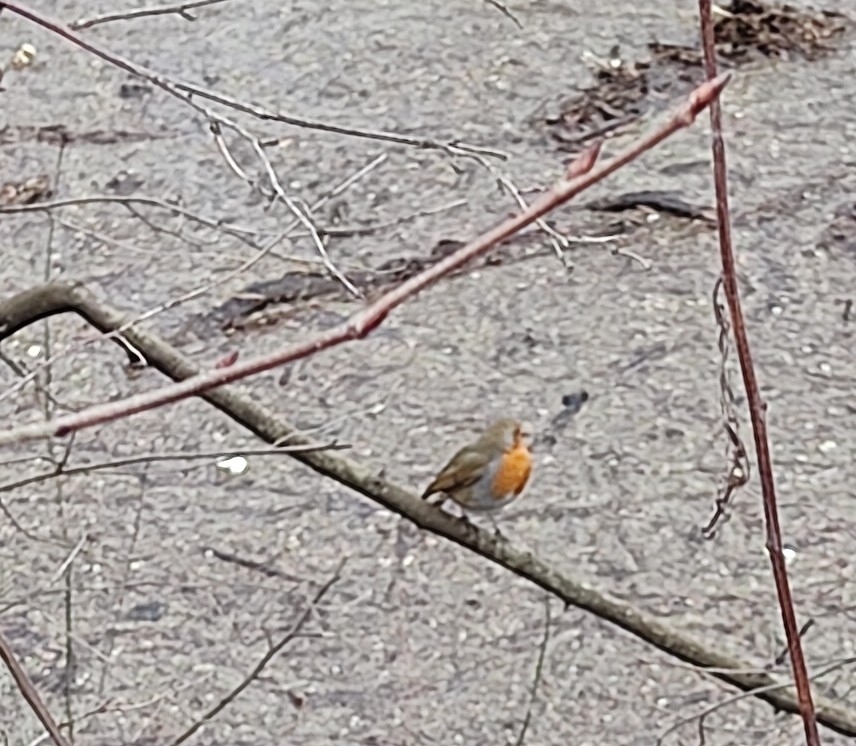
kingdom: Animalia
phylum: Chordata
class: Aves
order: Passeriformes
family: Muscicapidae
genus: Erithacus
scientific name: Erithacus rubecula
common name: European robin
